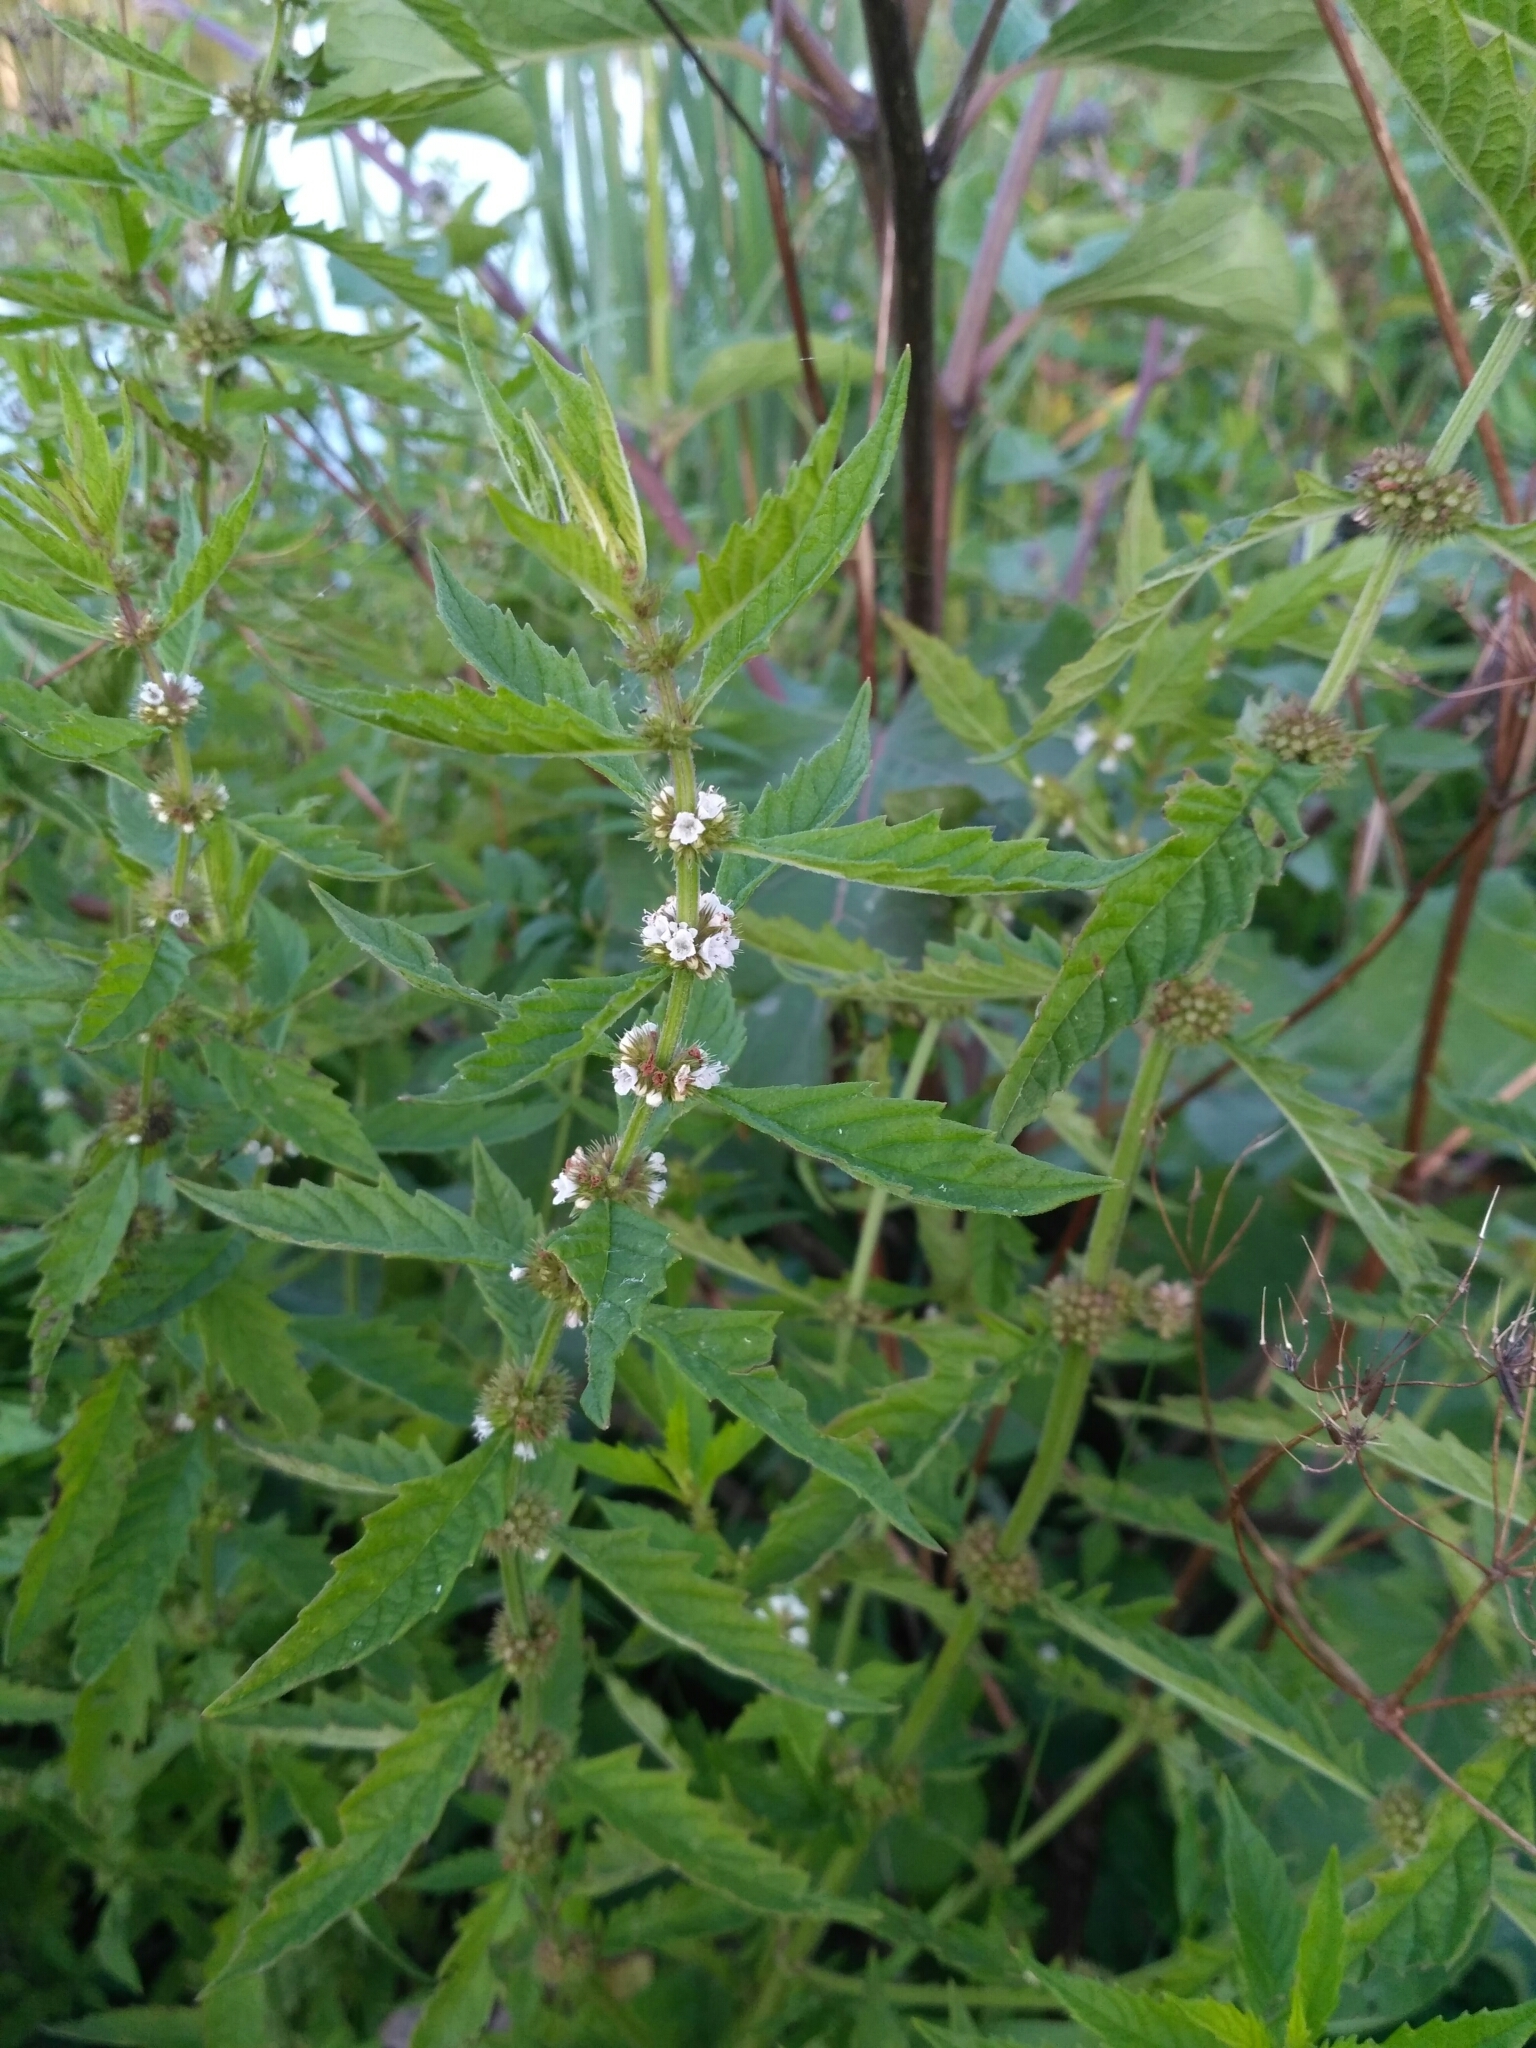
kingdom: Plantae
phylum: Tracheophyta
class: Magnoliopsida
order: Lamiales
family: Lamiaceae
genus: Lycopus
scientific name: Lycopus europaeus
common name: European bugleweed
